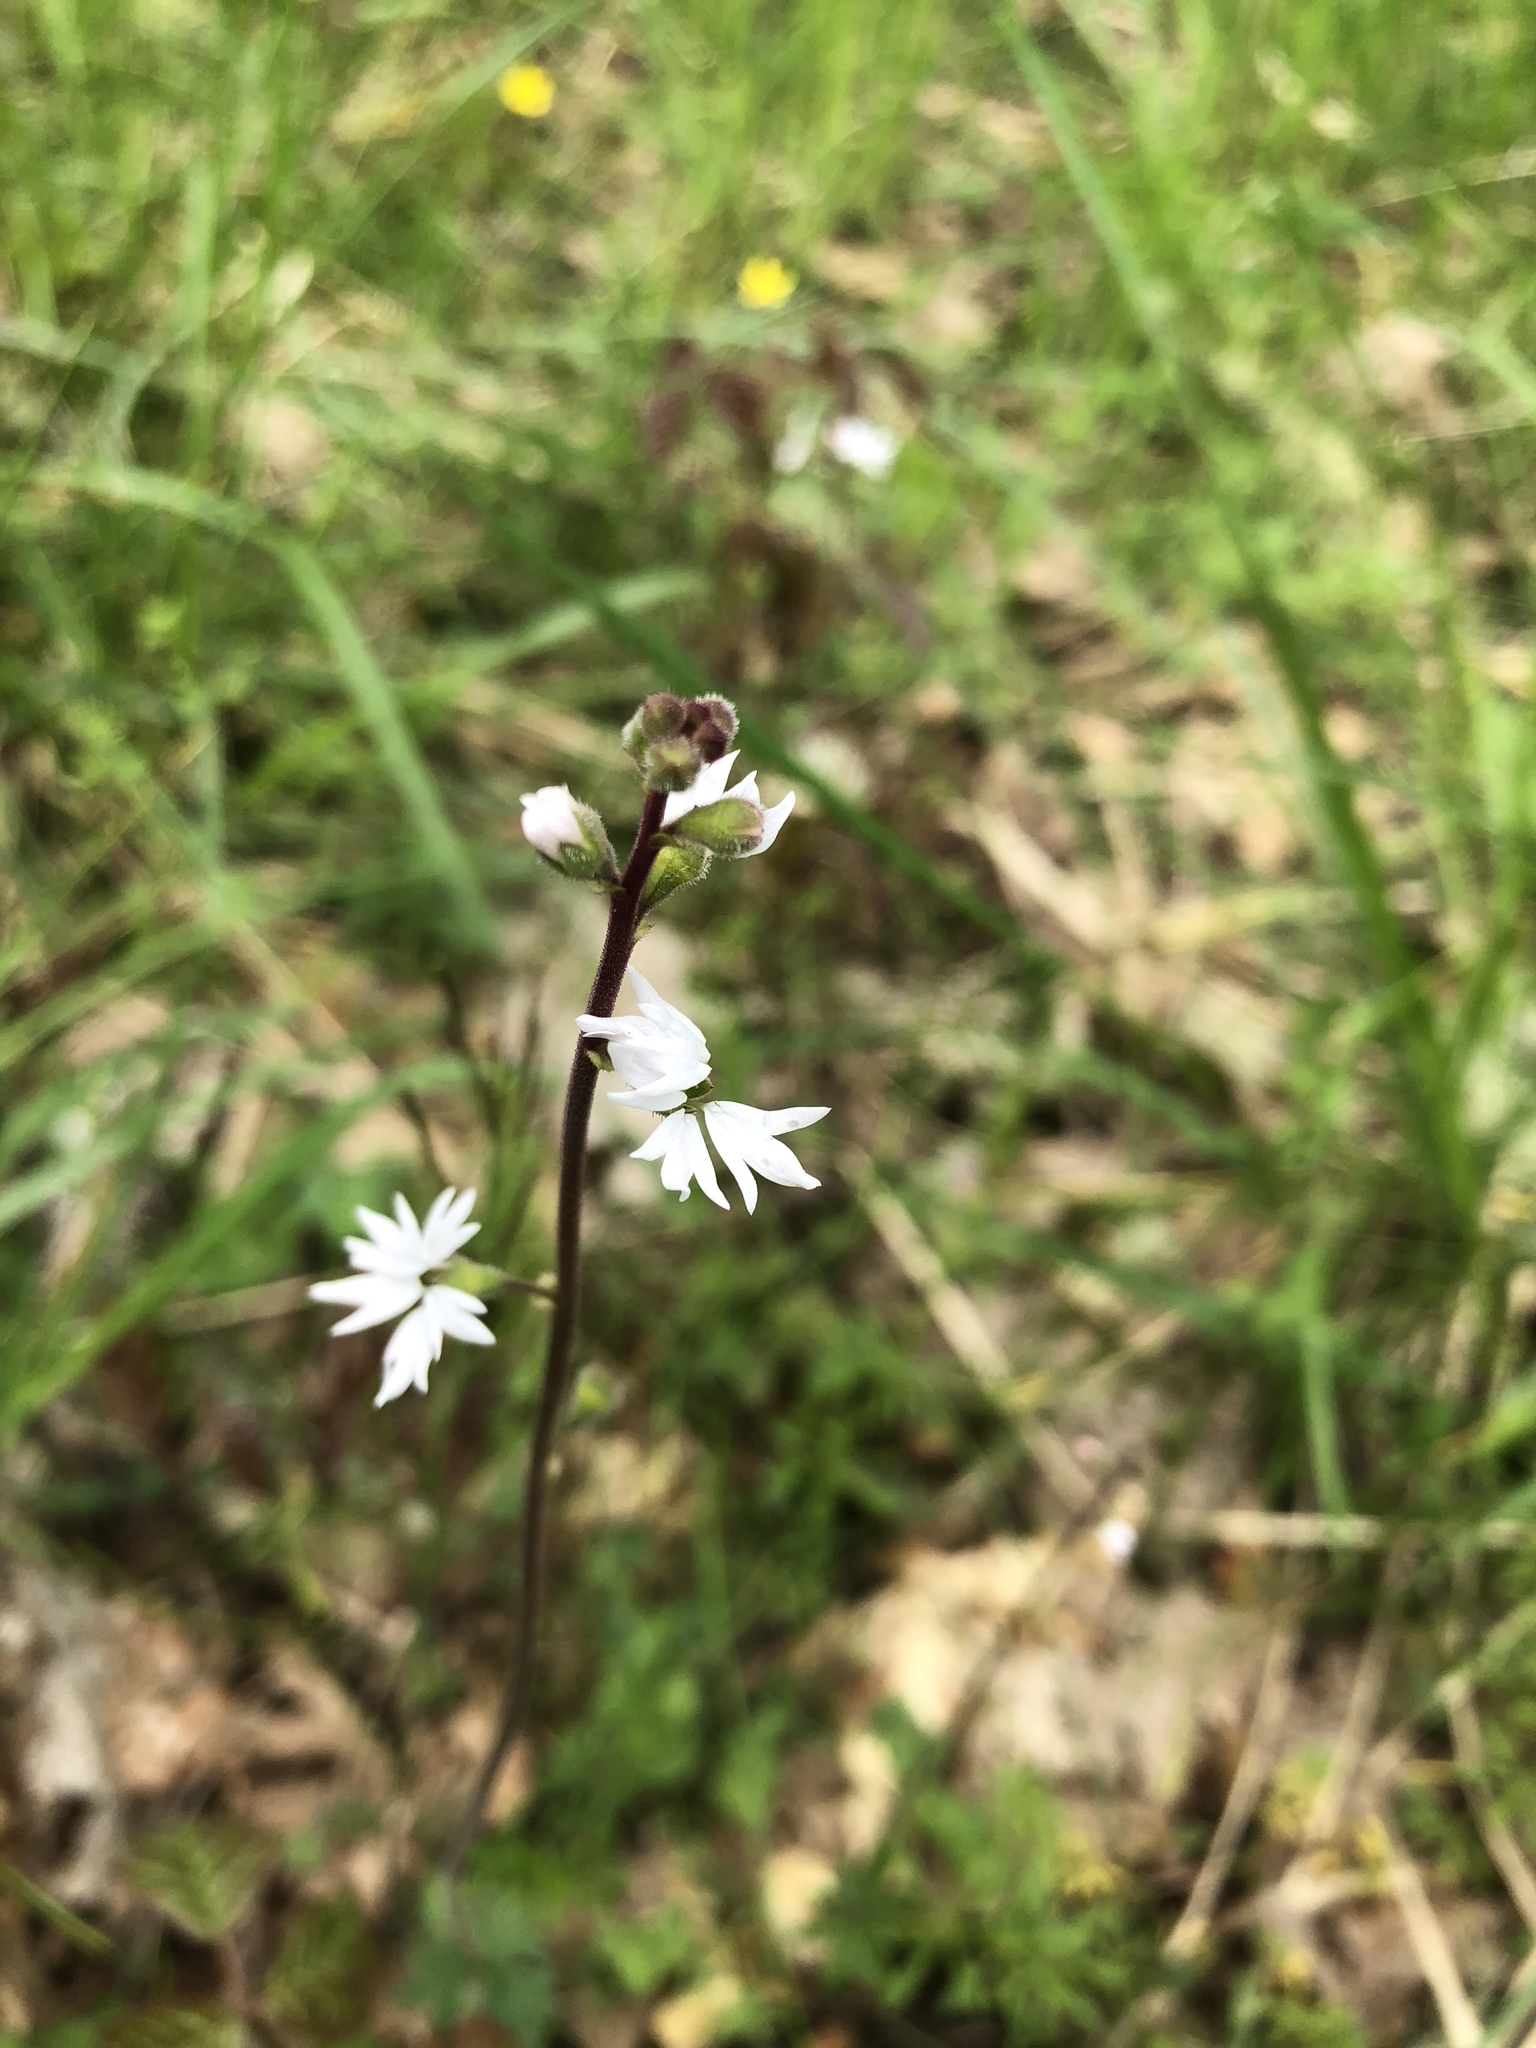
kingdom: Plantae
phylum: Tracheophyta
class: Magnoliopsida
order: Saxifragales
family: Saxifragaceae
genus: Lithophragma
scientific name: Lithophragma parviflorum
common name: Small-flowered fringe-cup
